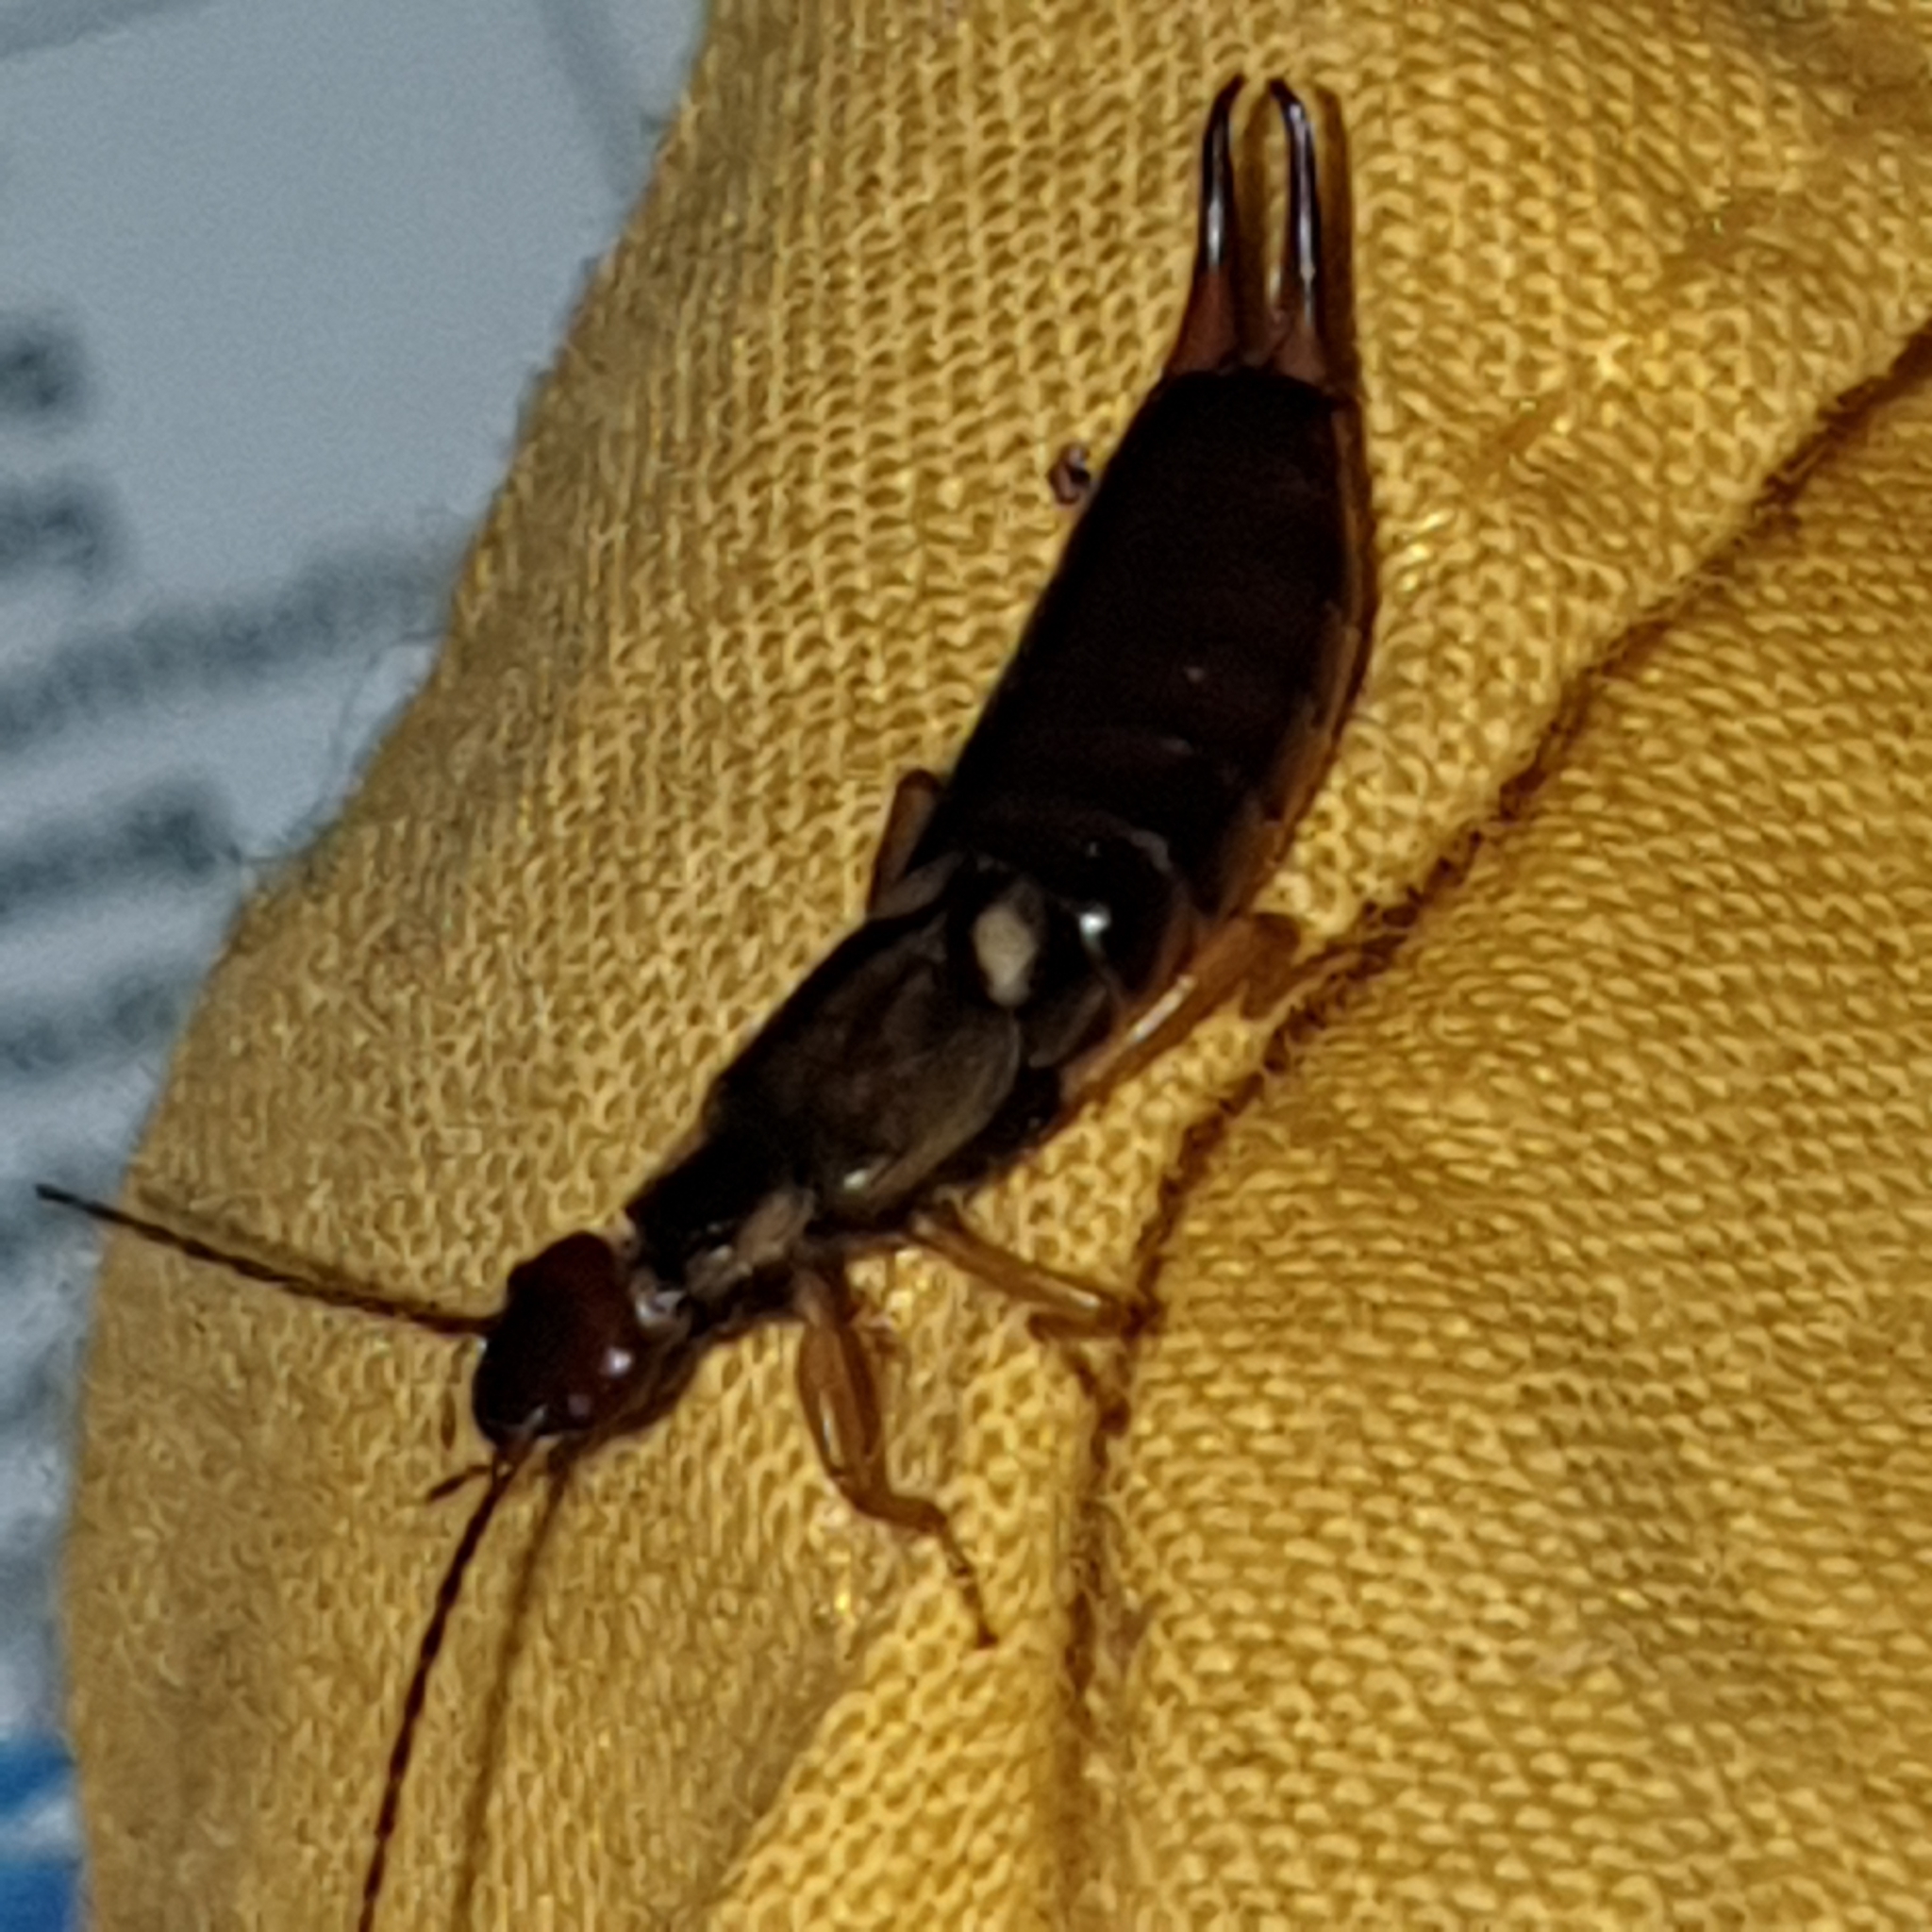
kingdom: Animalia
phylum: Arthropoda
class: Insecta
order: Dermaptera
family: Forficulidae
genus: Forficula
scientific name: Forficula
